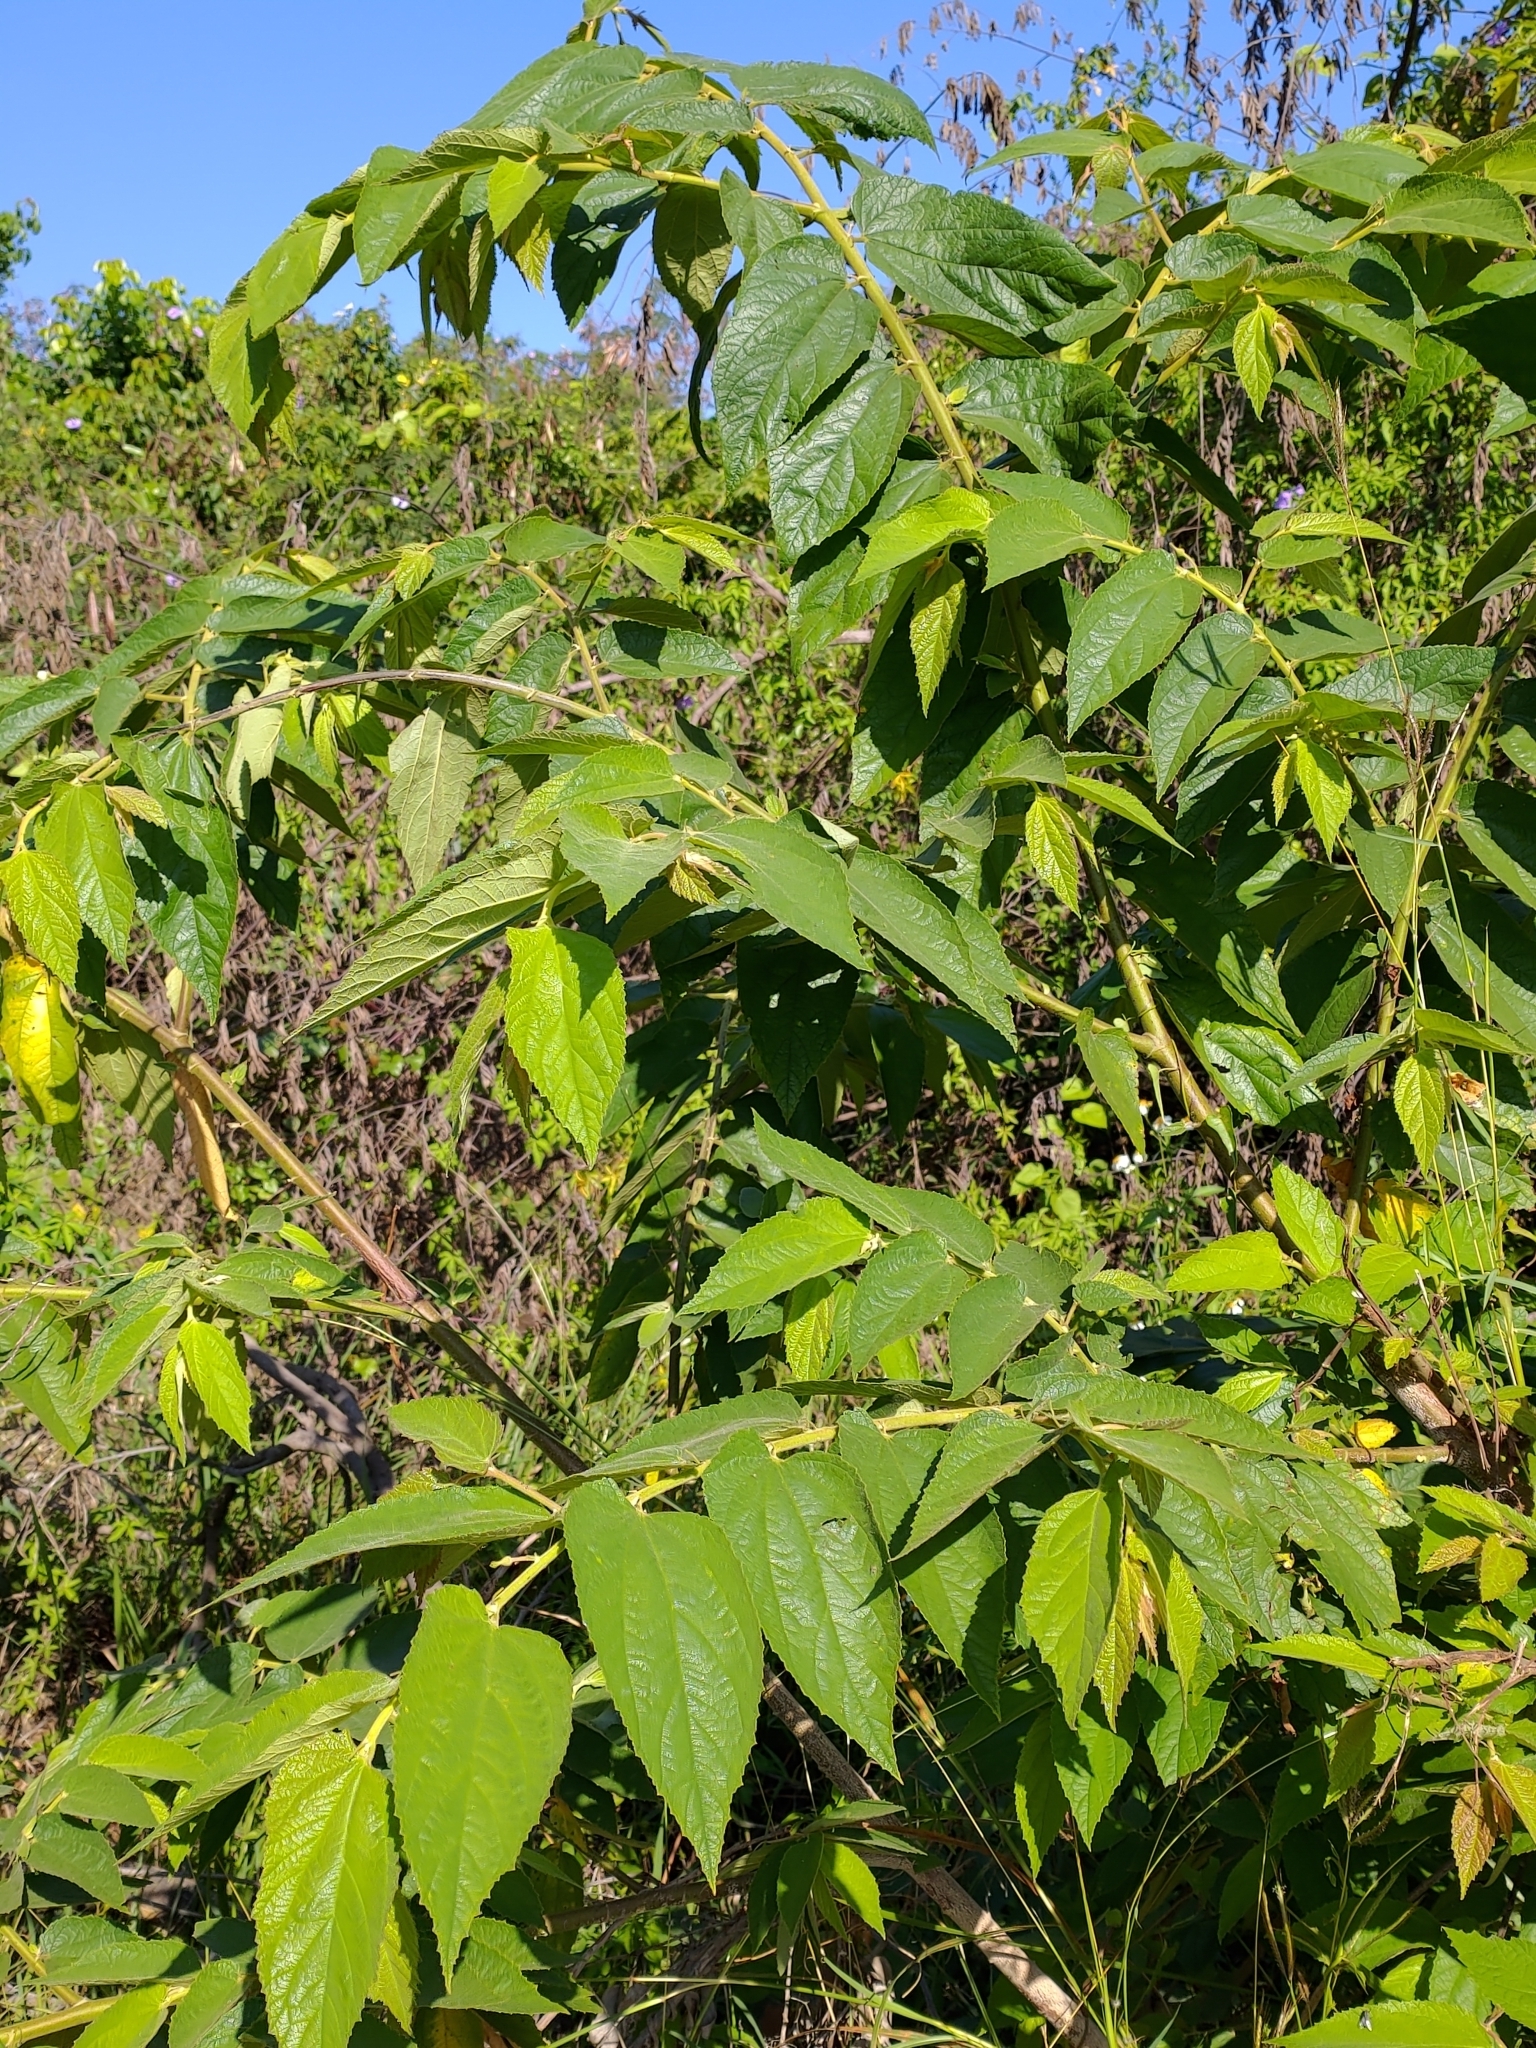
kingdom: Plantae
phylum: Tracheophyta
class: Magnoliopsida
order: Rosales
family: Cannabaceae
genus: Trema
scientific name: Trema orientale
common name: Indian charcoal tree
